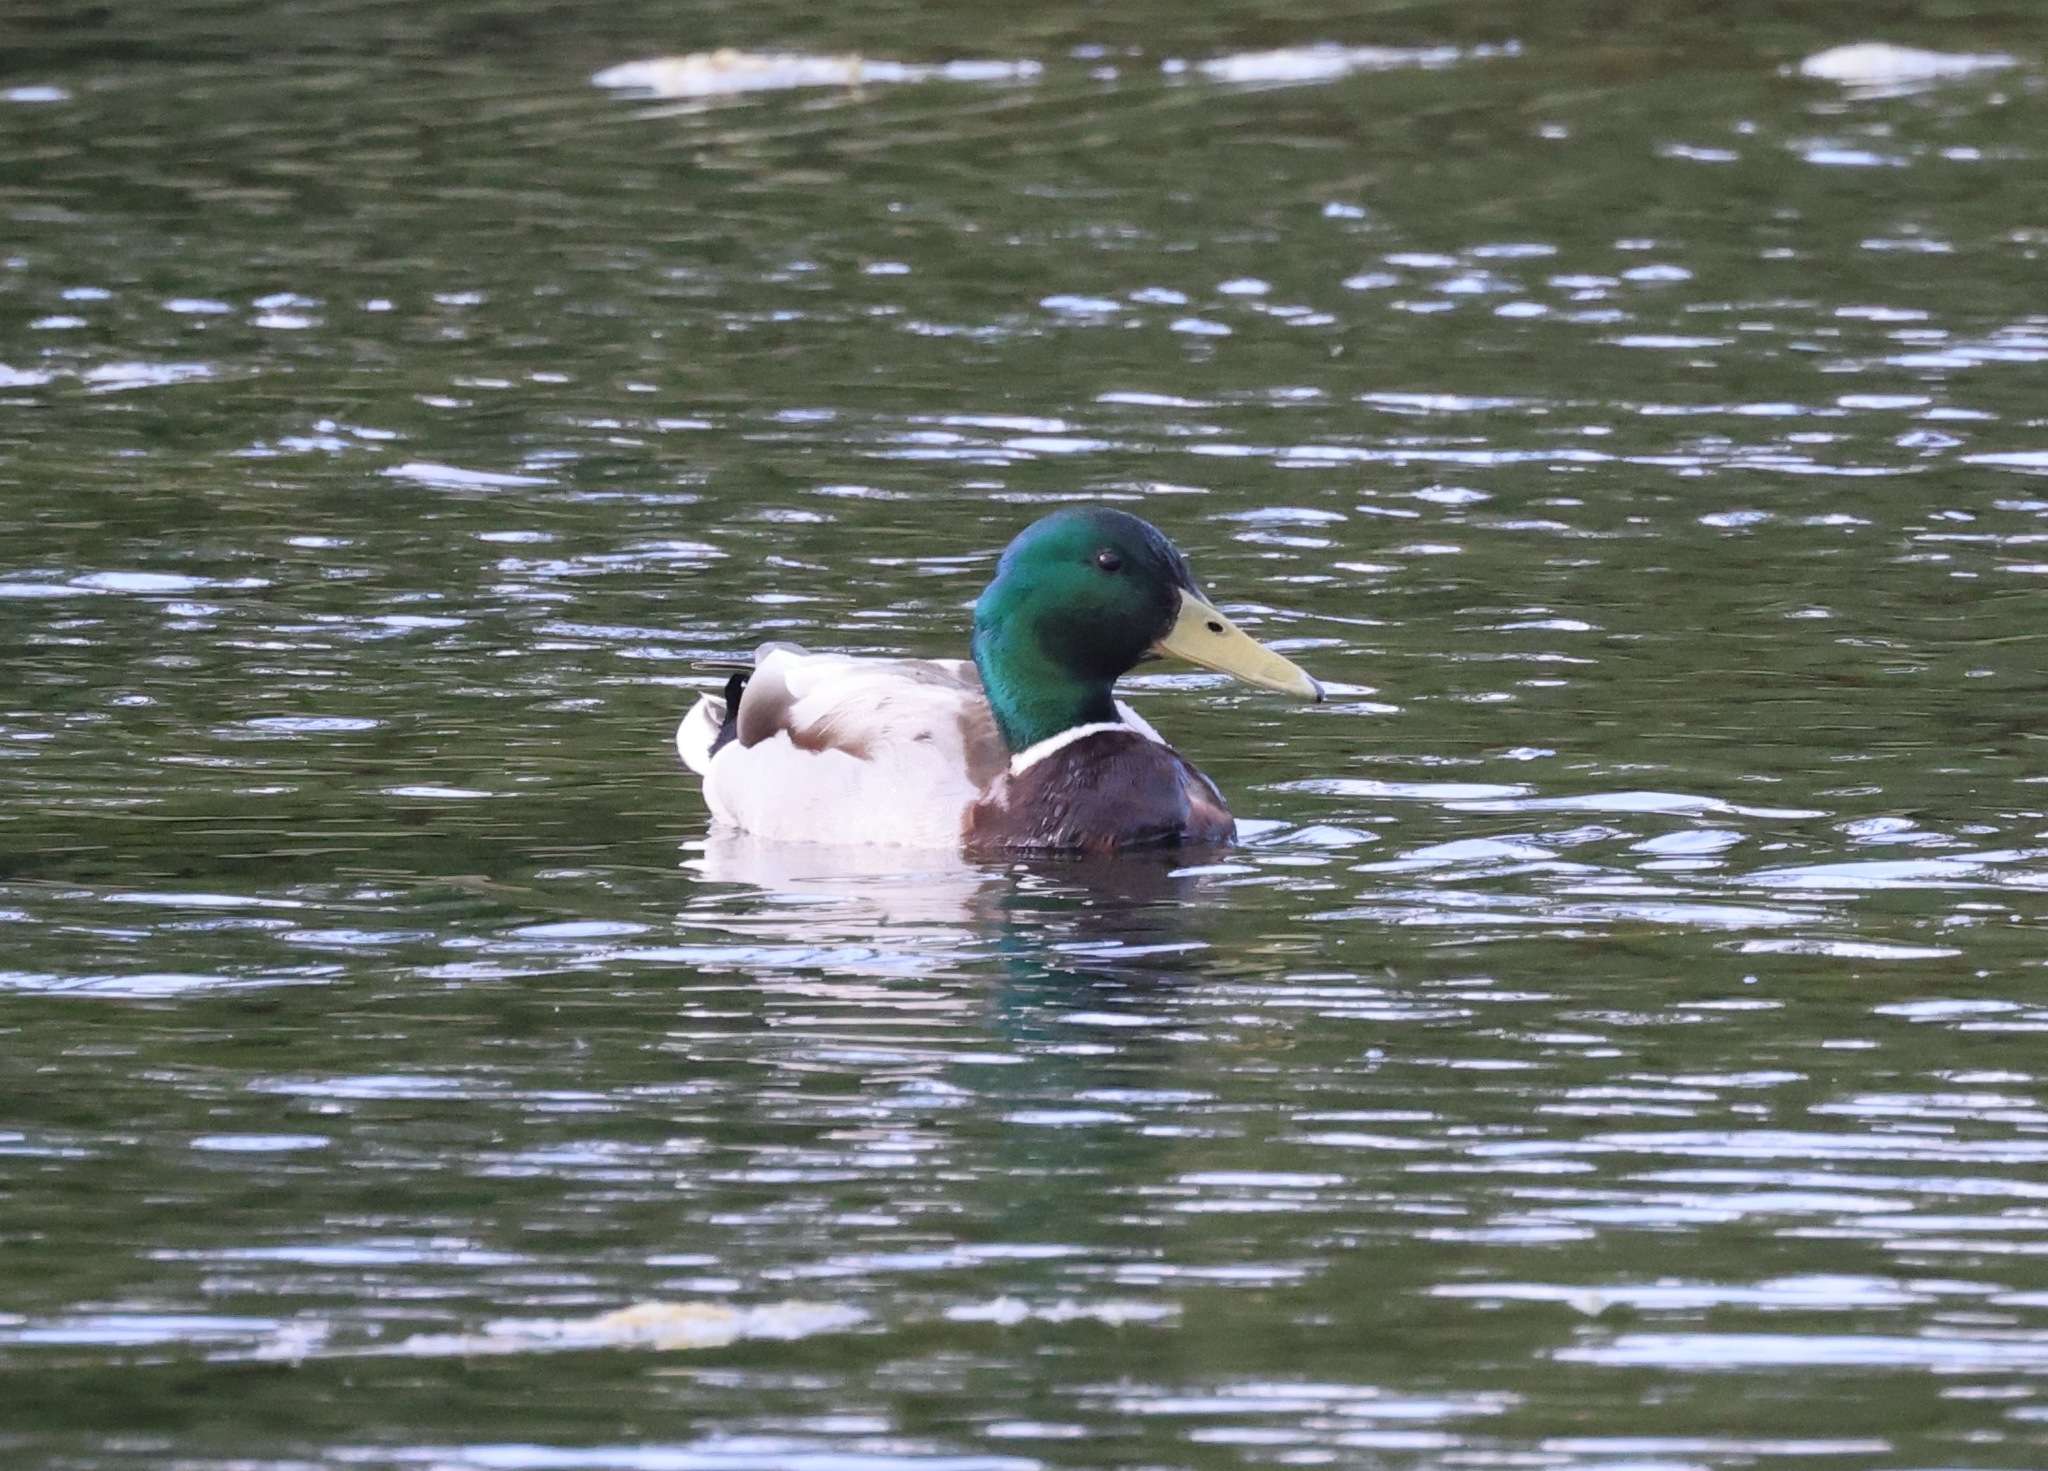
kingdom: Animalia
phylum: Chordata
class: Aves
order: Anseriformes
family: Anatidae
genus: Anas
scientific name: Anas platyrhynchos
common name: Mallard
